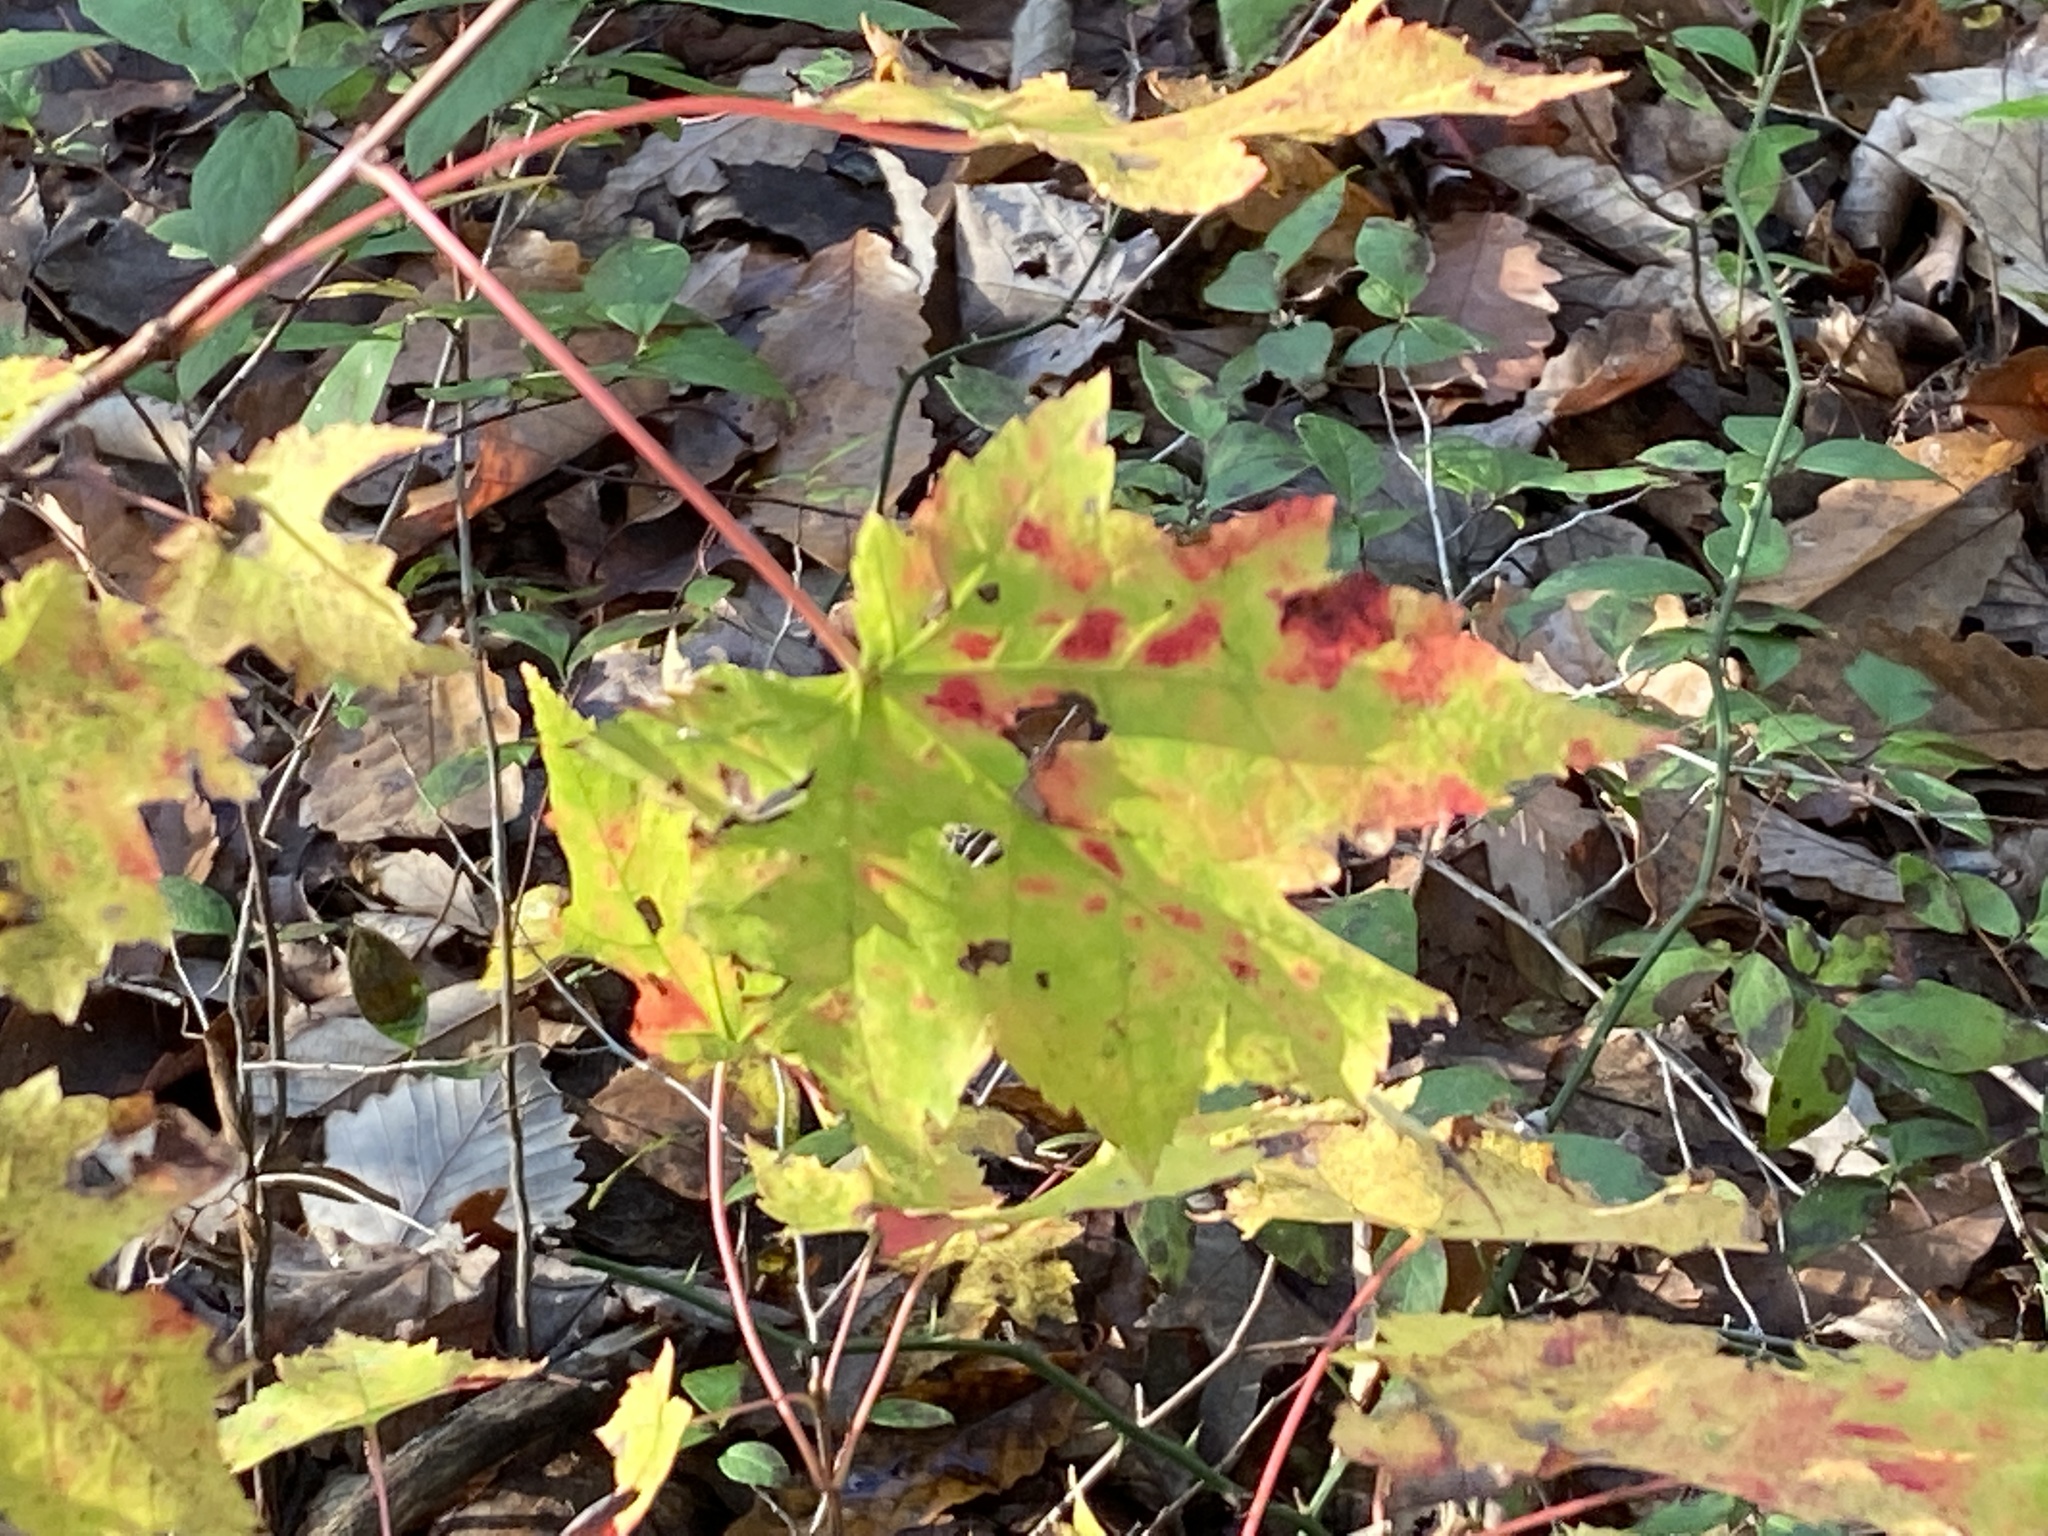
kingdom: Plantae
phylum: Tracheophyta
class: Magnoliopsida
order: Sapindales
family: Sapindaceae
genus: Acer
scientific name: Acer rubrum
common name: Red maple
